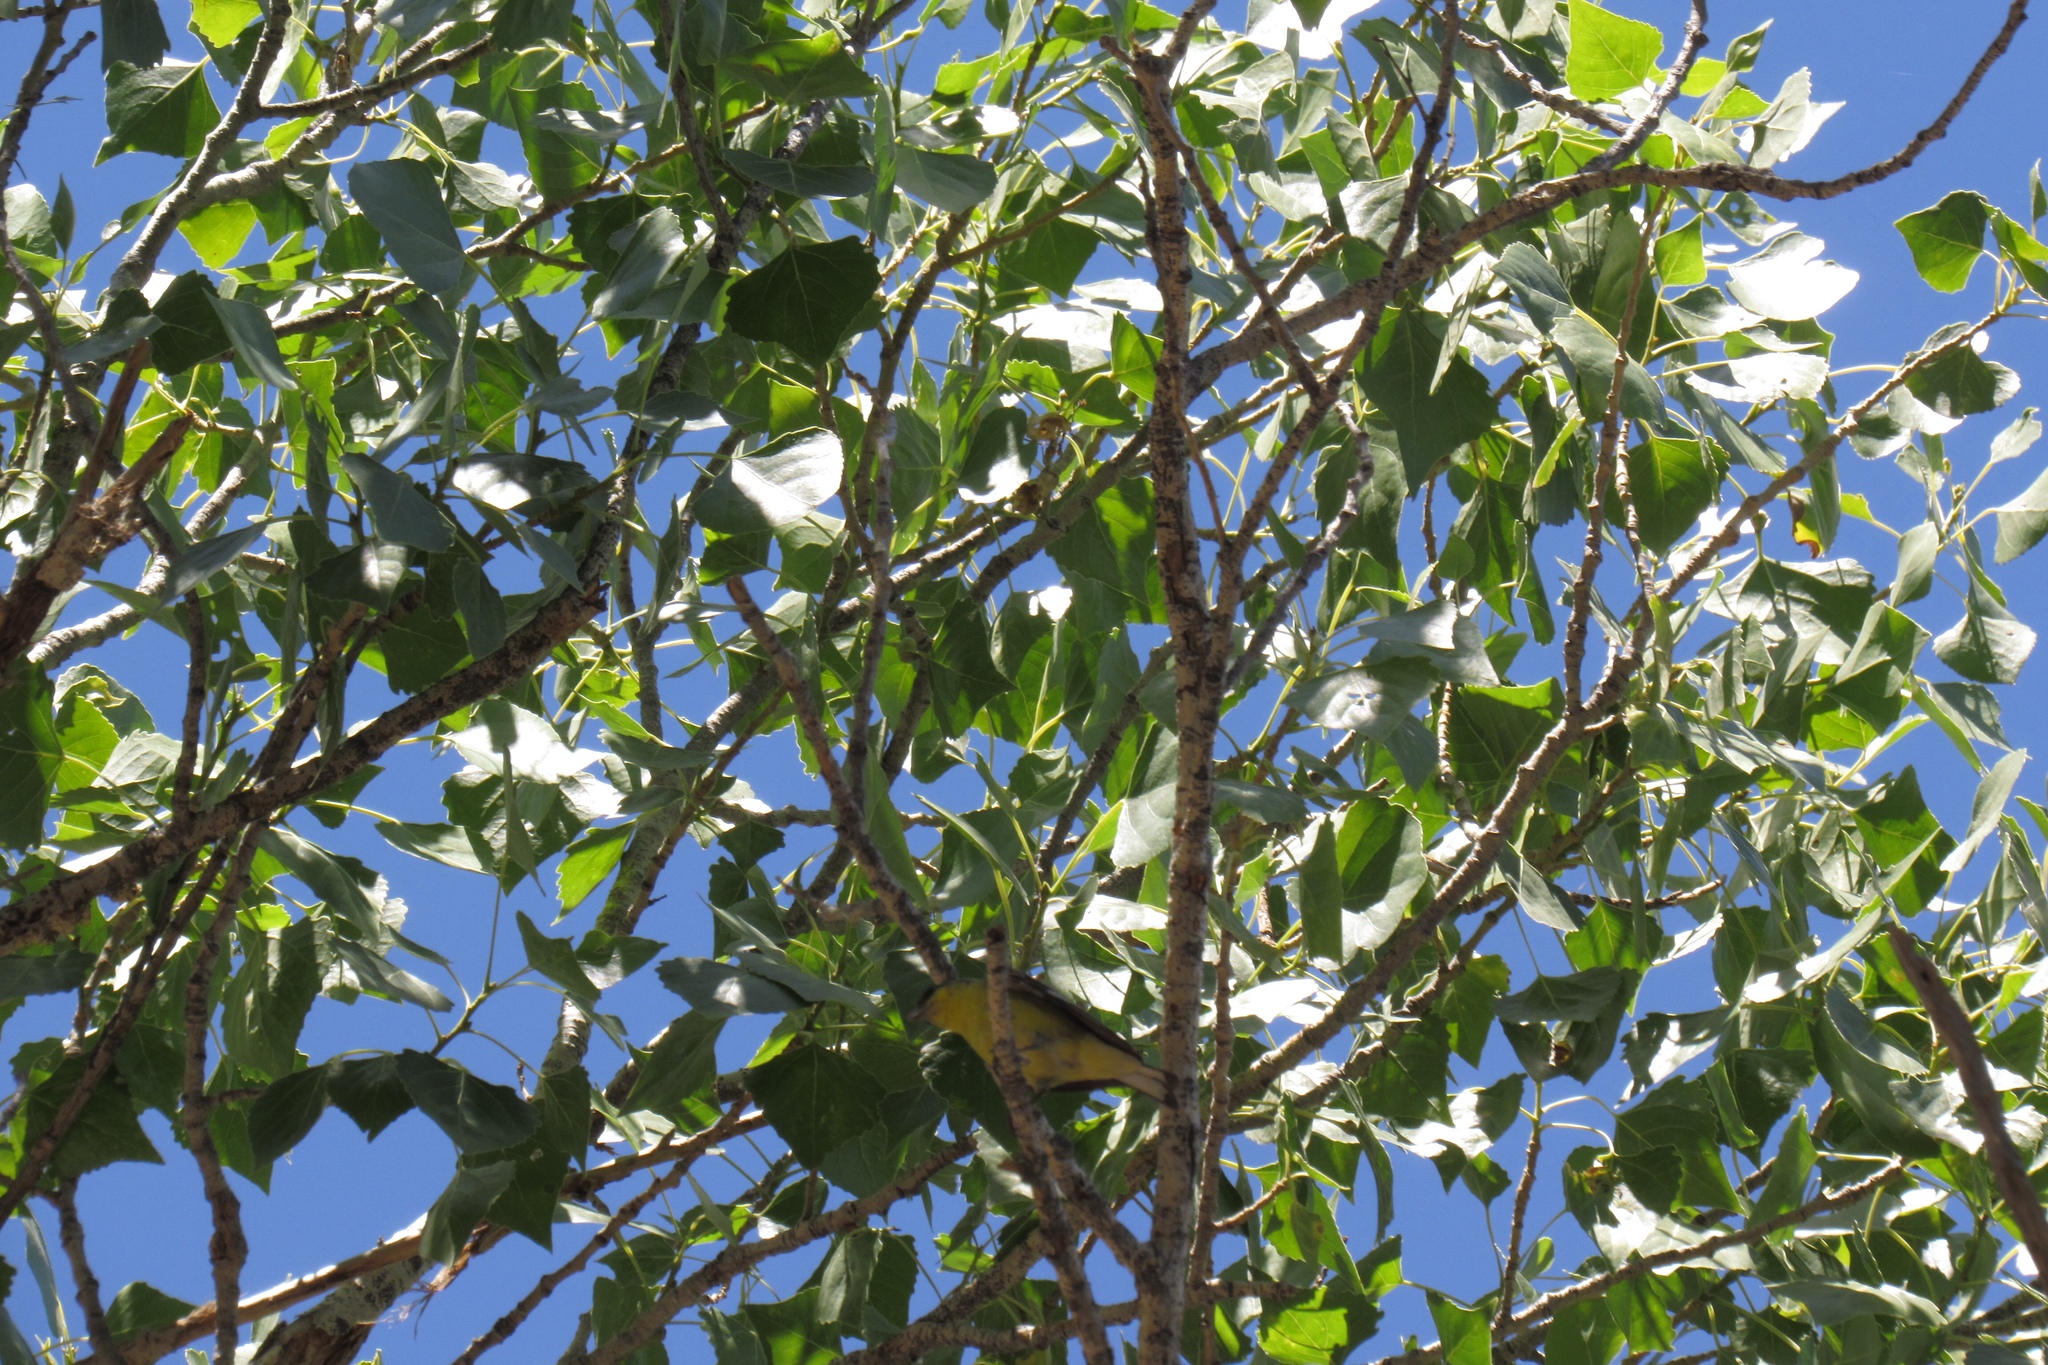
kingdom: Animalia
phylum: Chordata
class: Aves
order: Passeriformes
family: Tyrannidae
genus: Pyrocephalus
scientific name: Pyrocephalus rubinus
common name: Vermilion flycatcher
